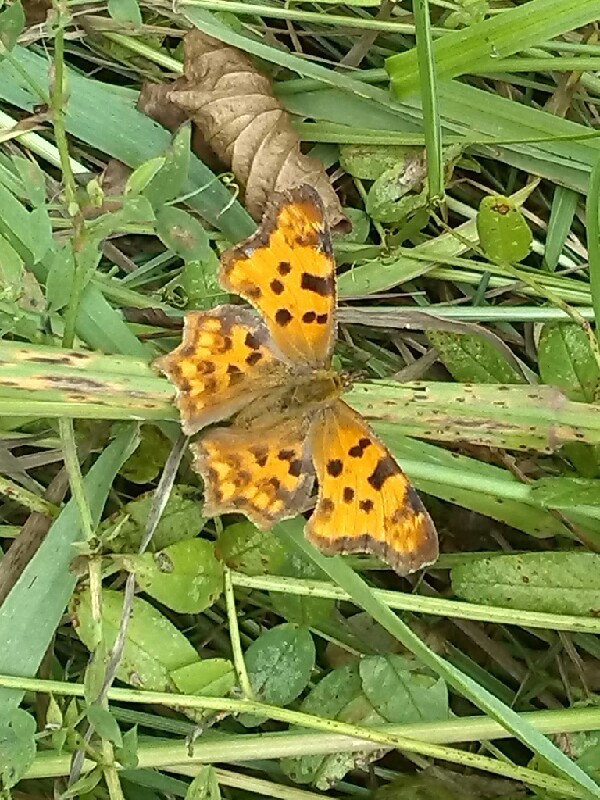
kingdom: Animalia
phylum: Arthropoda
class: Insecta
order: Lepidoptera
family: Nymphalidae
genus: Polygonia
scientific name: Polygonia c-album
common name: Comma
